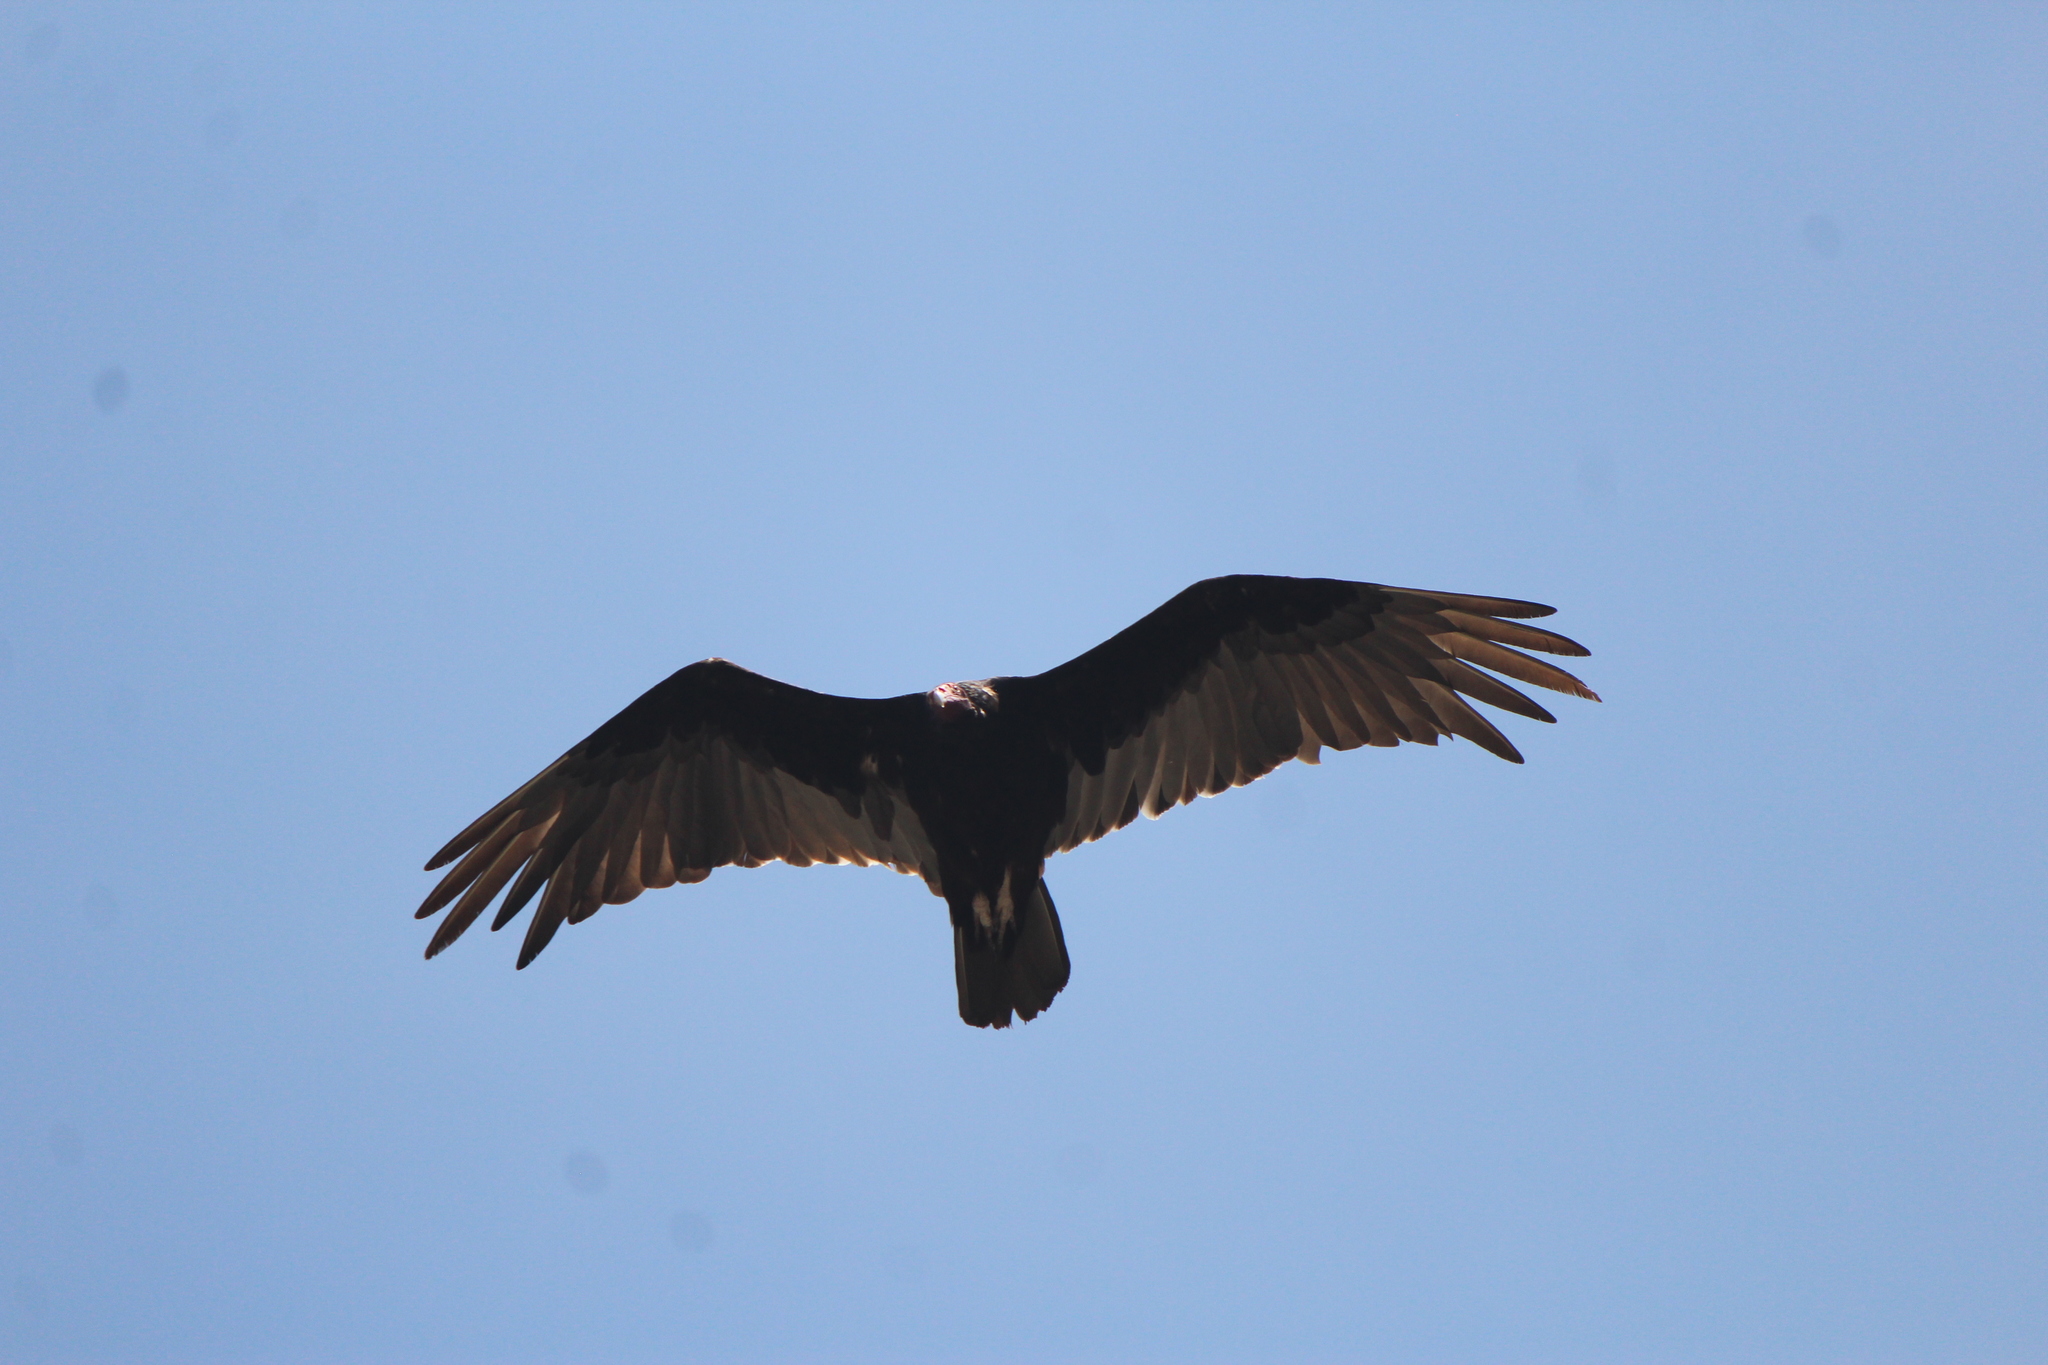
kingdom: Animalia
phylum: Chordata
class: Aves
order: Accipitriformes
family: Cathartidae
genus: Cathartes
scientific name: Cathartes aura
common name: Turkey vulture
